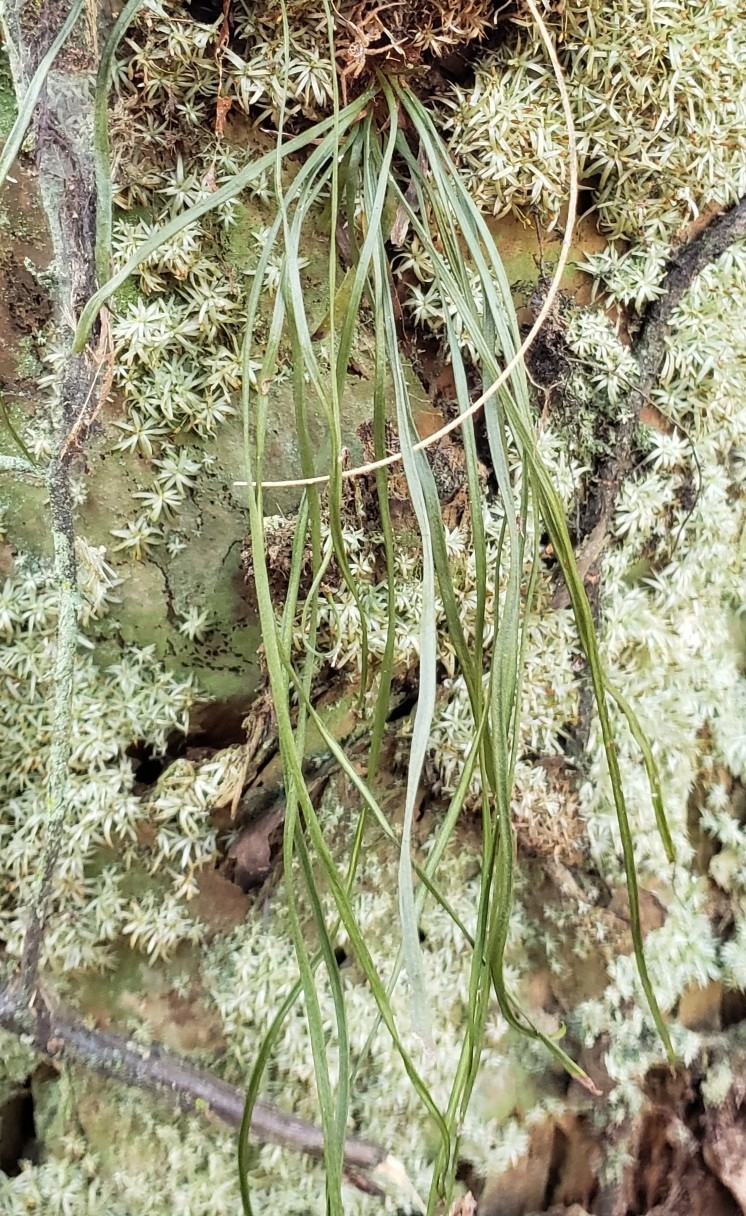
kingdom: Plantae
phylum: Tracheophyta
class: Polypodiopsida
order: Polypodiales
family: Pteridaceae
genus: Vittaria
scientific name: Vittaria lineata
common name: Shoestring fern
